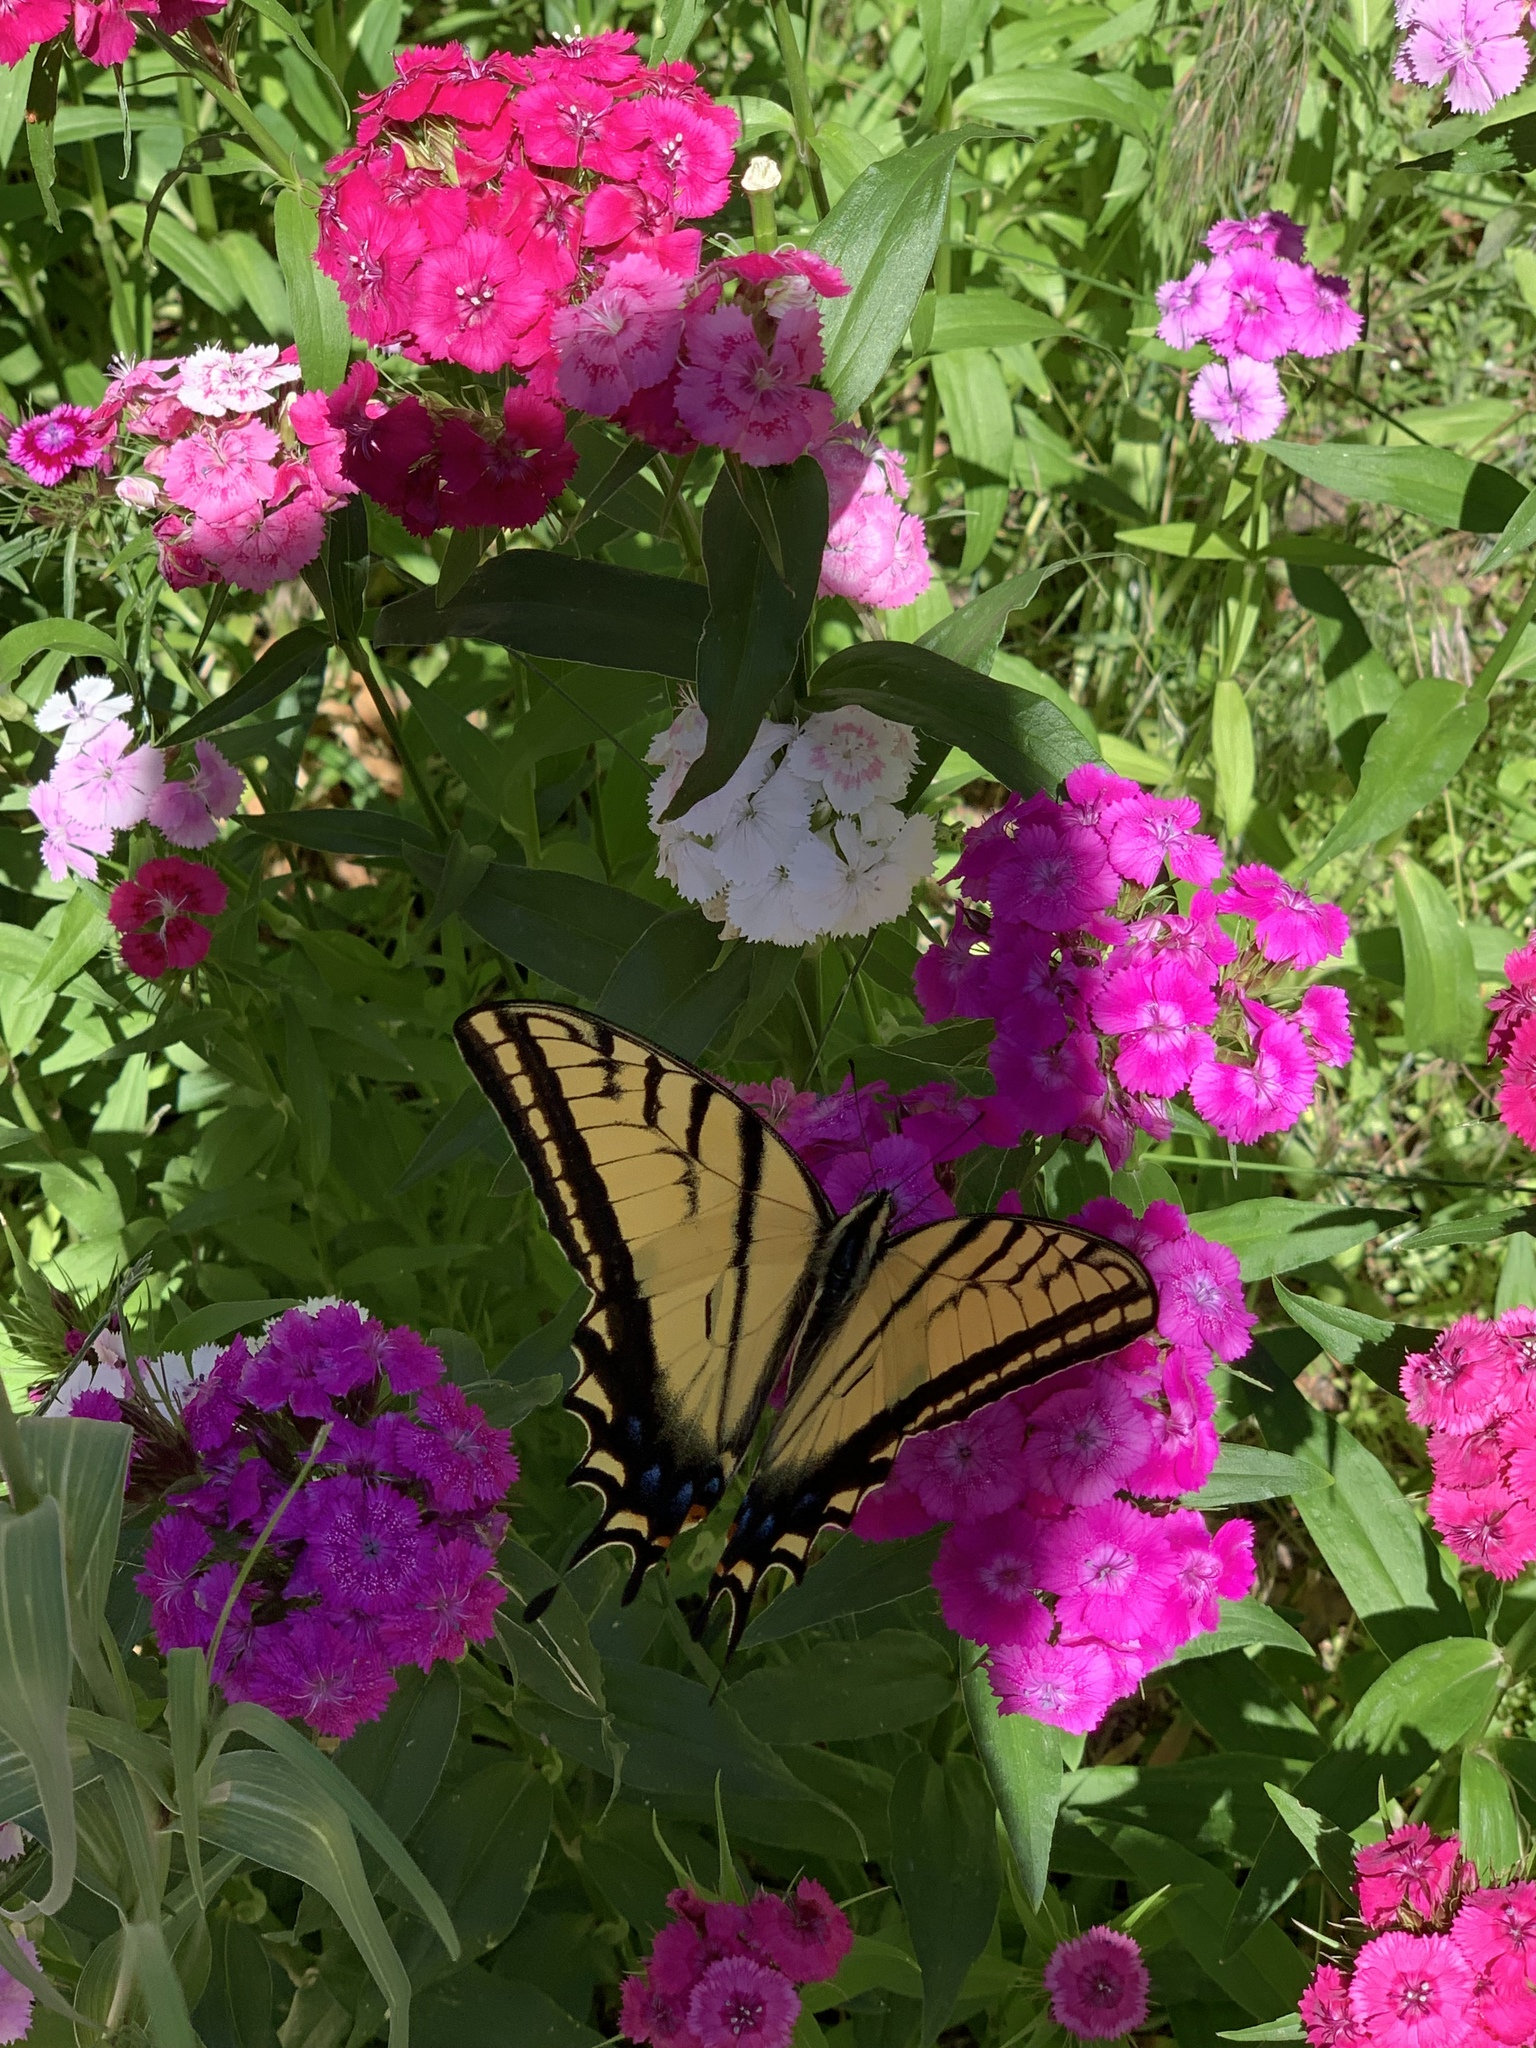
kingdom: Animalia
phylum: Arthropoda
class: Insecta
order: Lepidoptera
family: Papilionidae
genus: Papilio
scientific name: Papilio multicaudata
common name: Two-tailed tiger swallowtail
